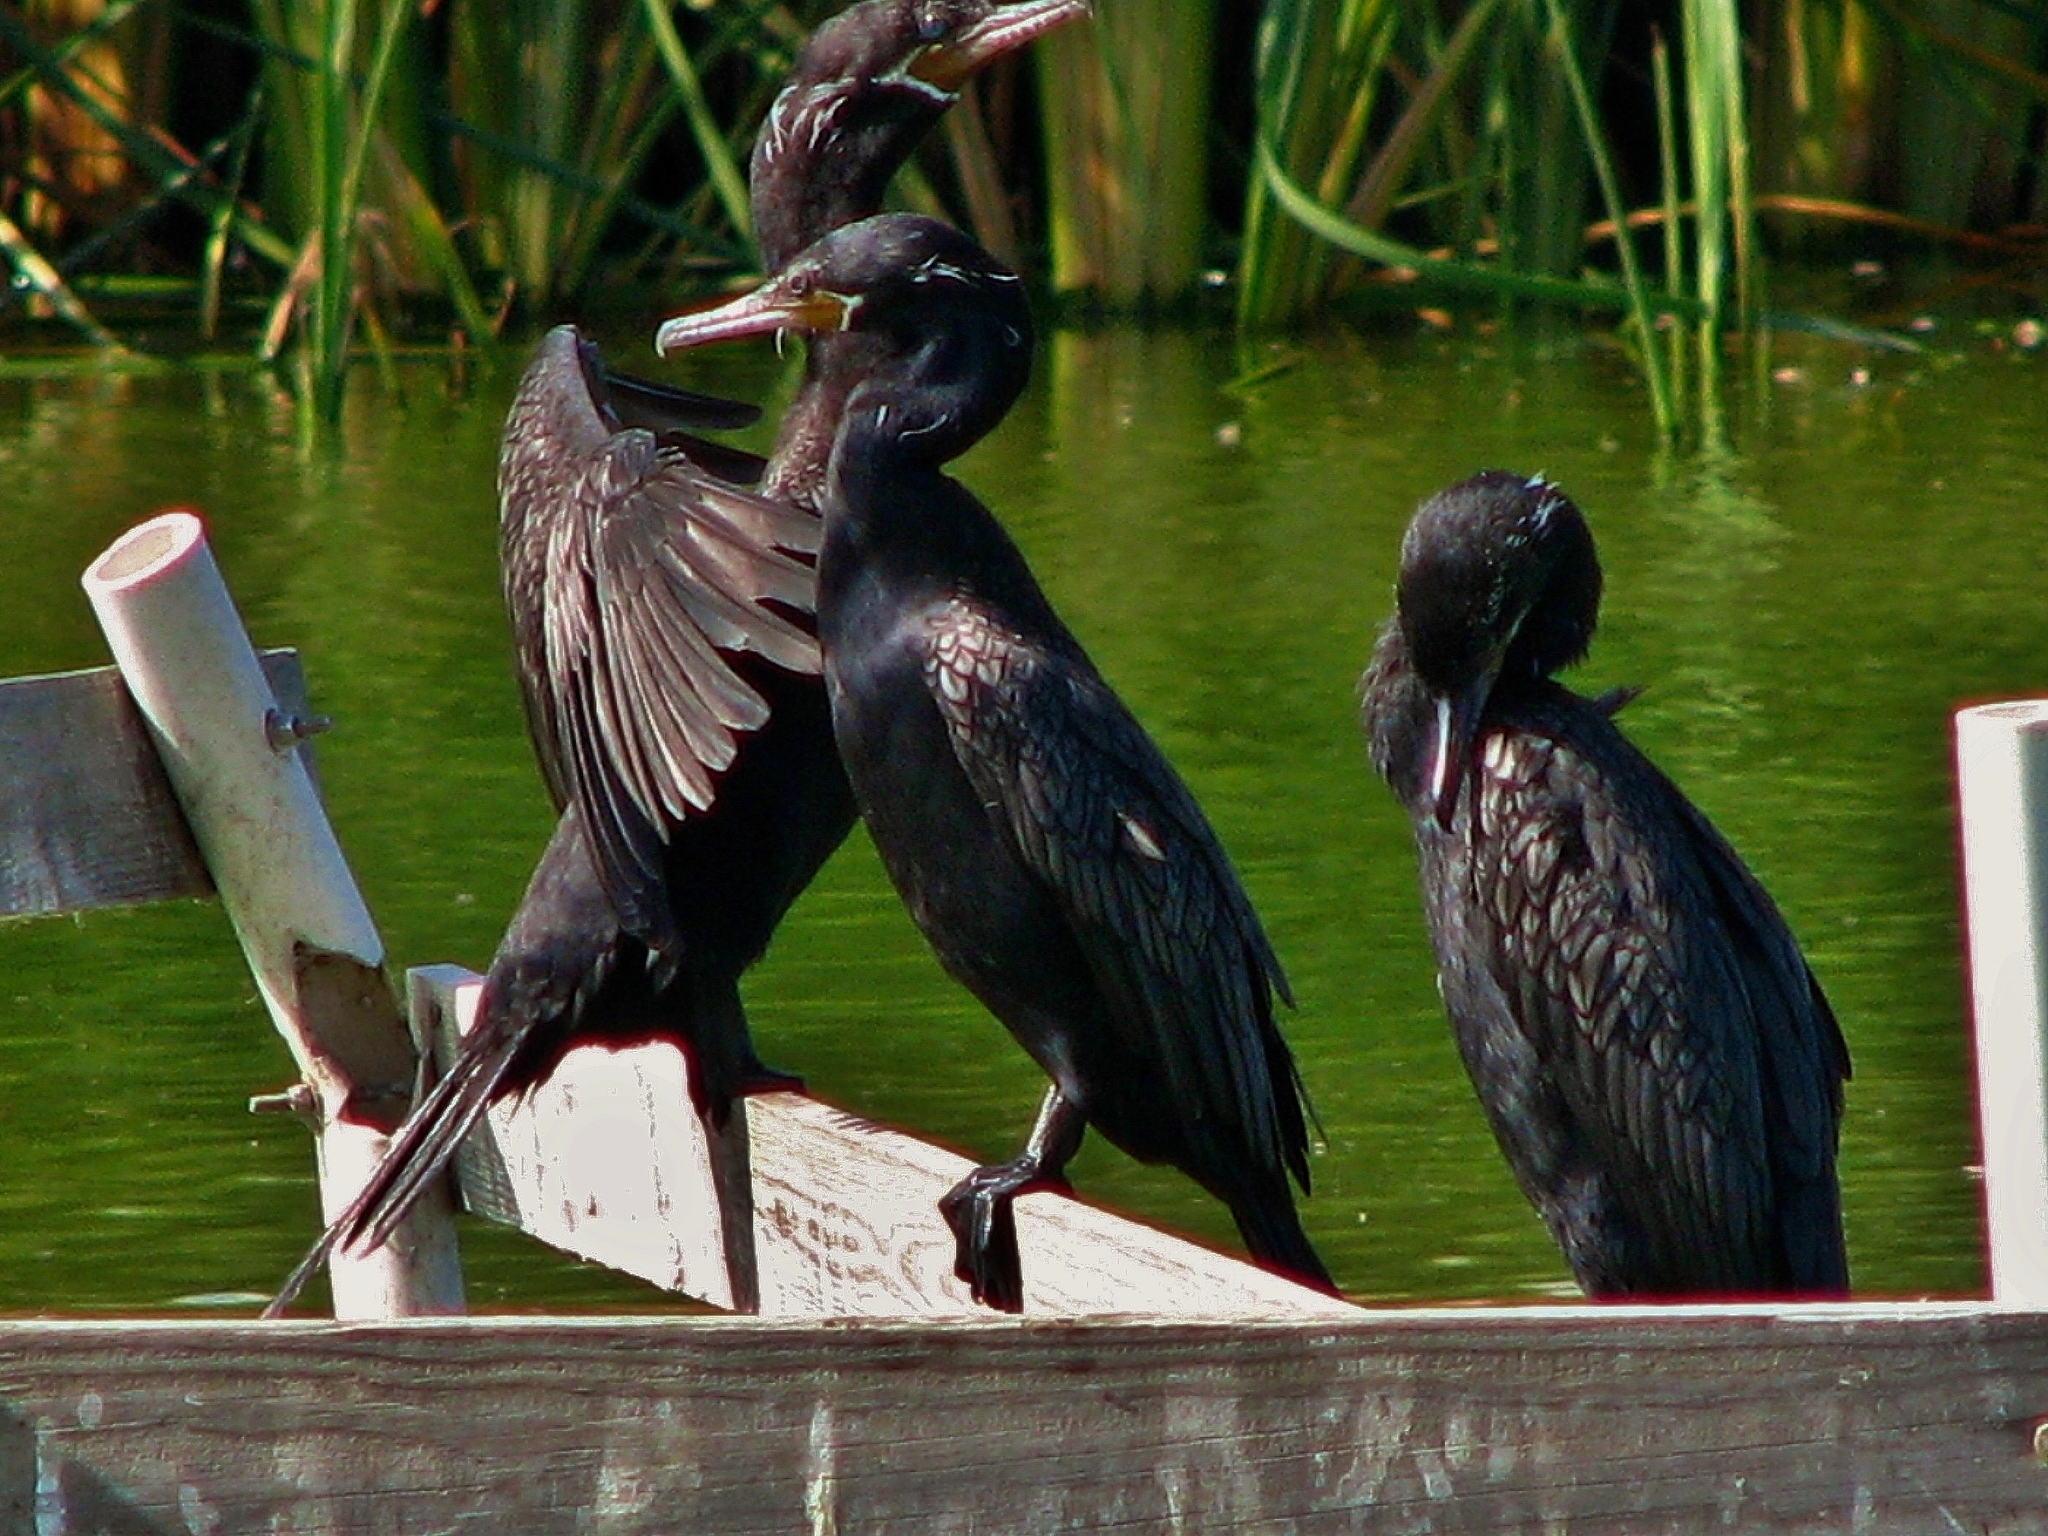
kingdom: Animalia
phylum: Chordata
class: Aves
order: Suliformes
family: Phalacrocoracidae
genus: Phalacrocorax
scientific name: Phalacrocorax brasilianus
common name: Neotropic cormorant
